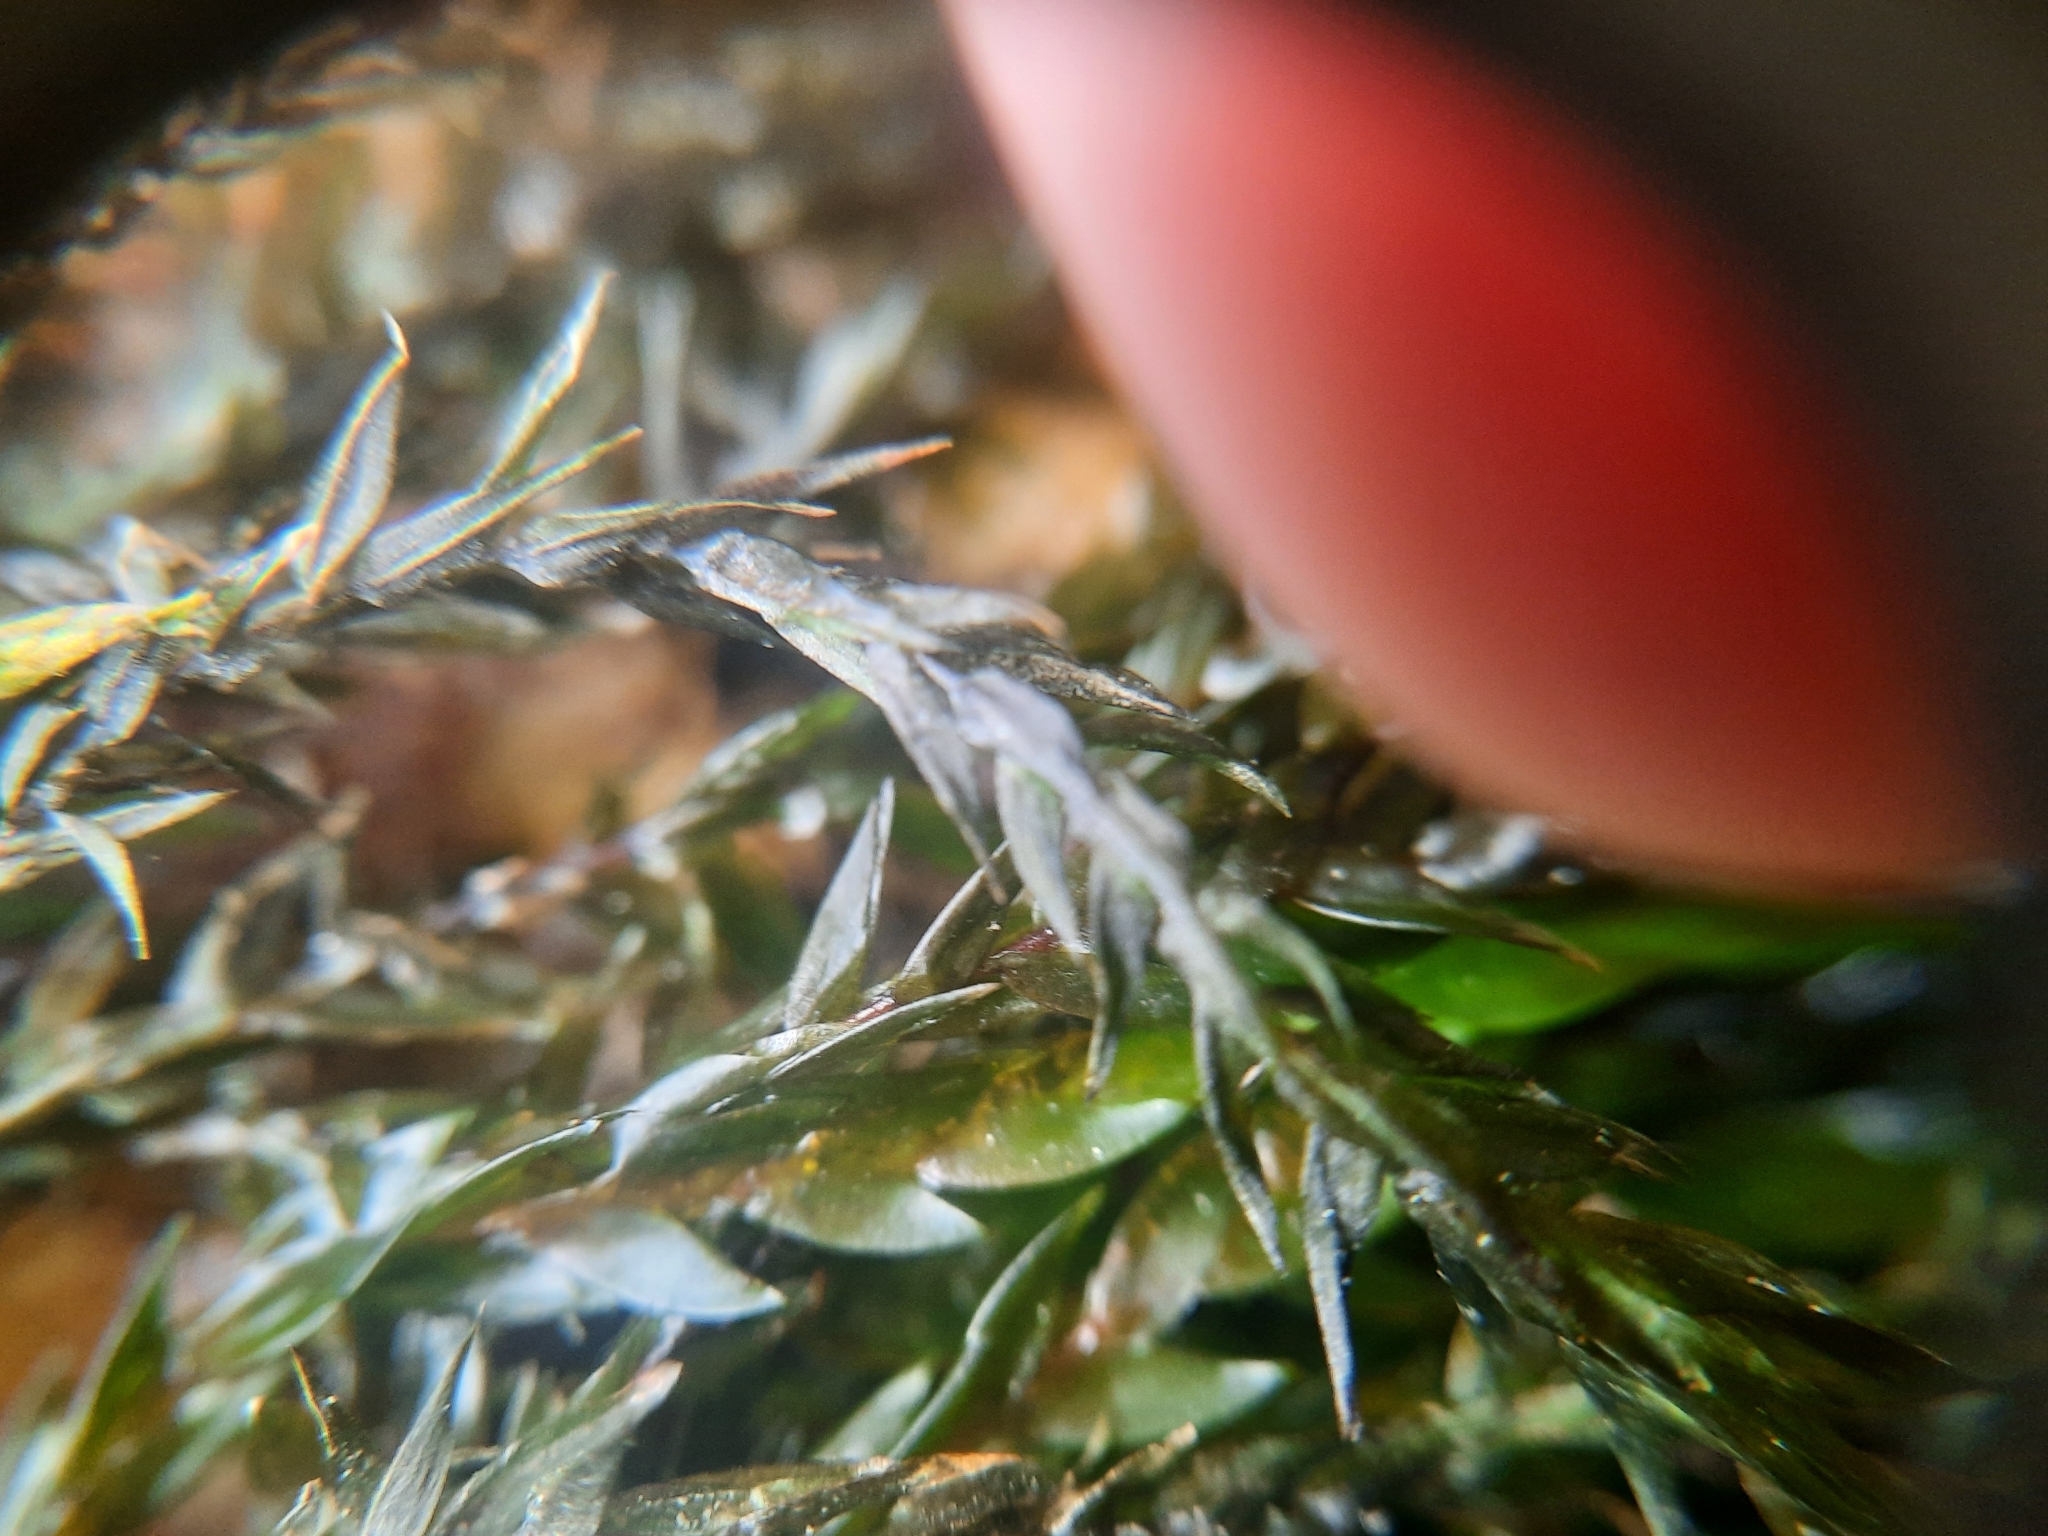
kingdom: Plantae
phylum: Bryophyta
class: Bryopsida
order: Hypnales
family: Fontinalaceae
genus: Fontinalis
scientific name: Fontinalis antipyretica
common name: Greater water-moss
